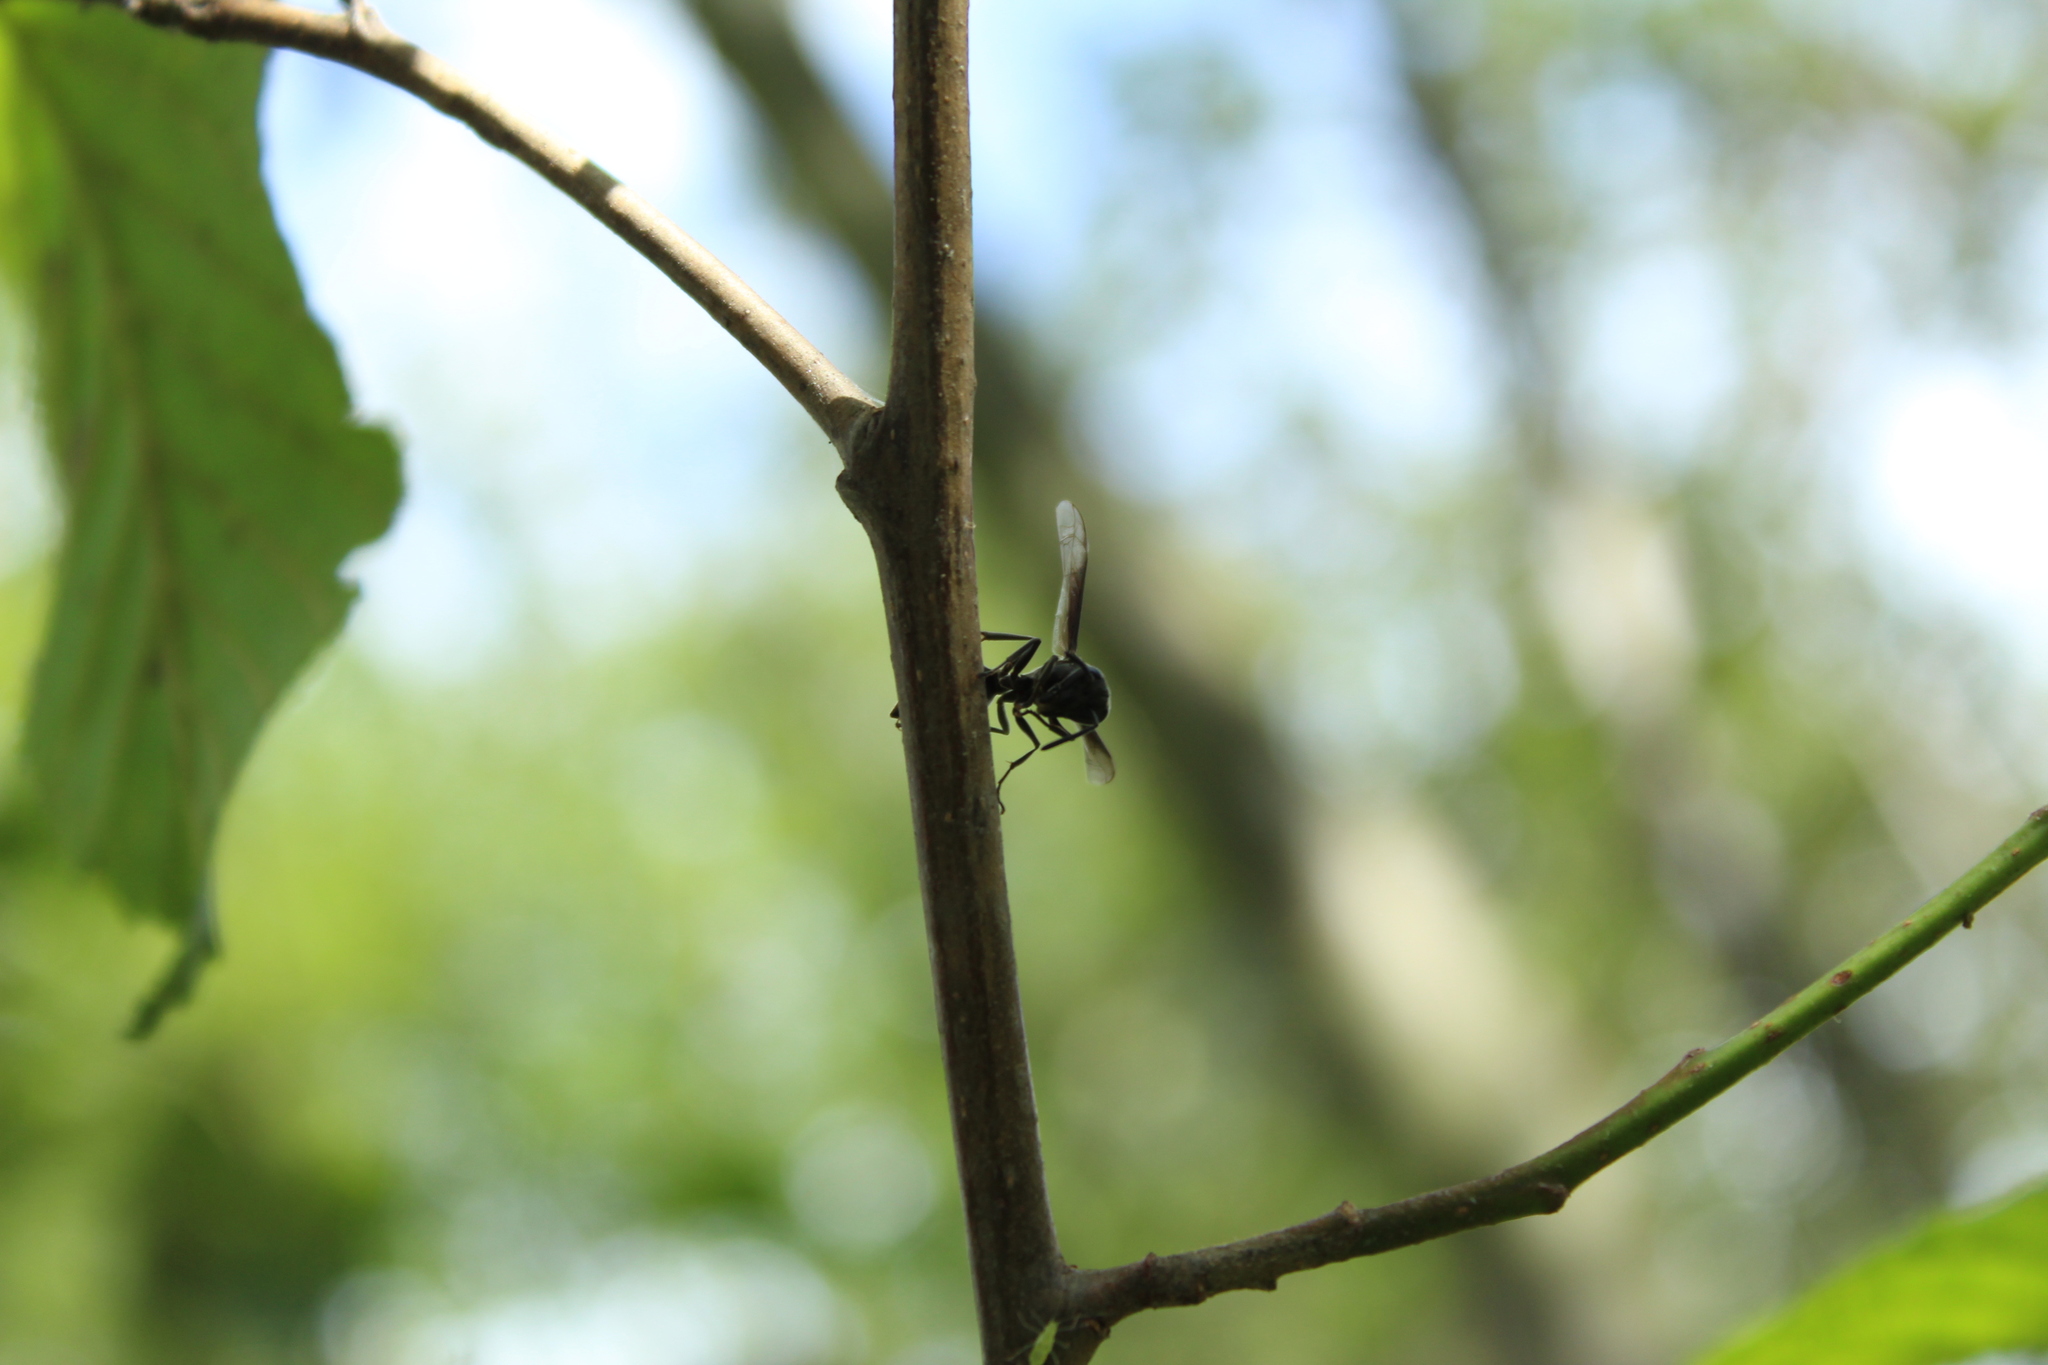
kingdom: Animalia
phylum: Arthropoda
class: Insecta
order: Hymenoptera
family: Eumenidae
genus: Polybia
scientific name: Polybia ignobilis
